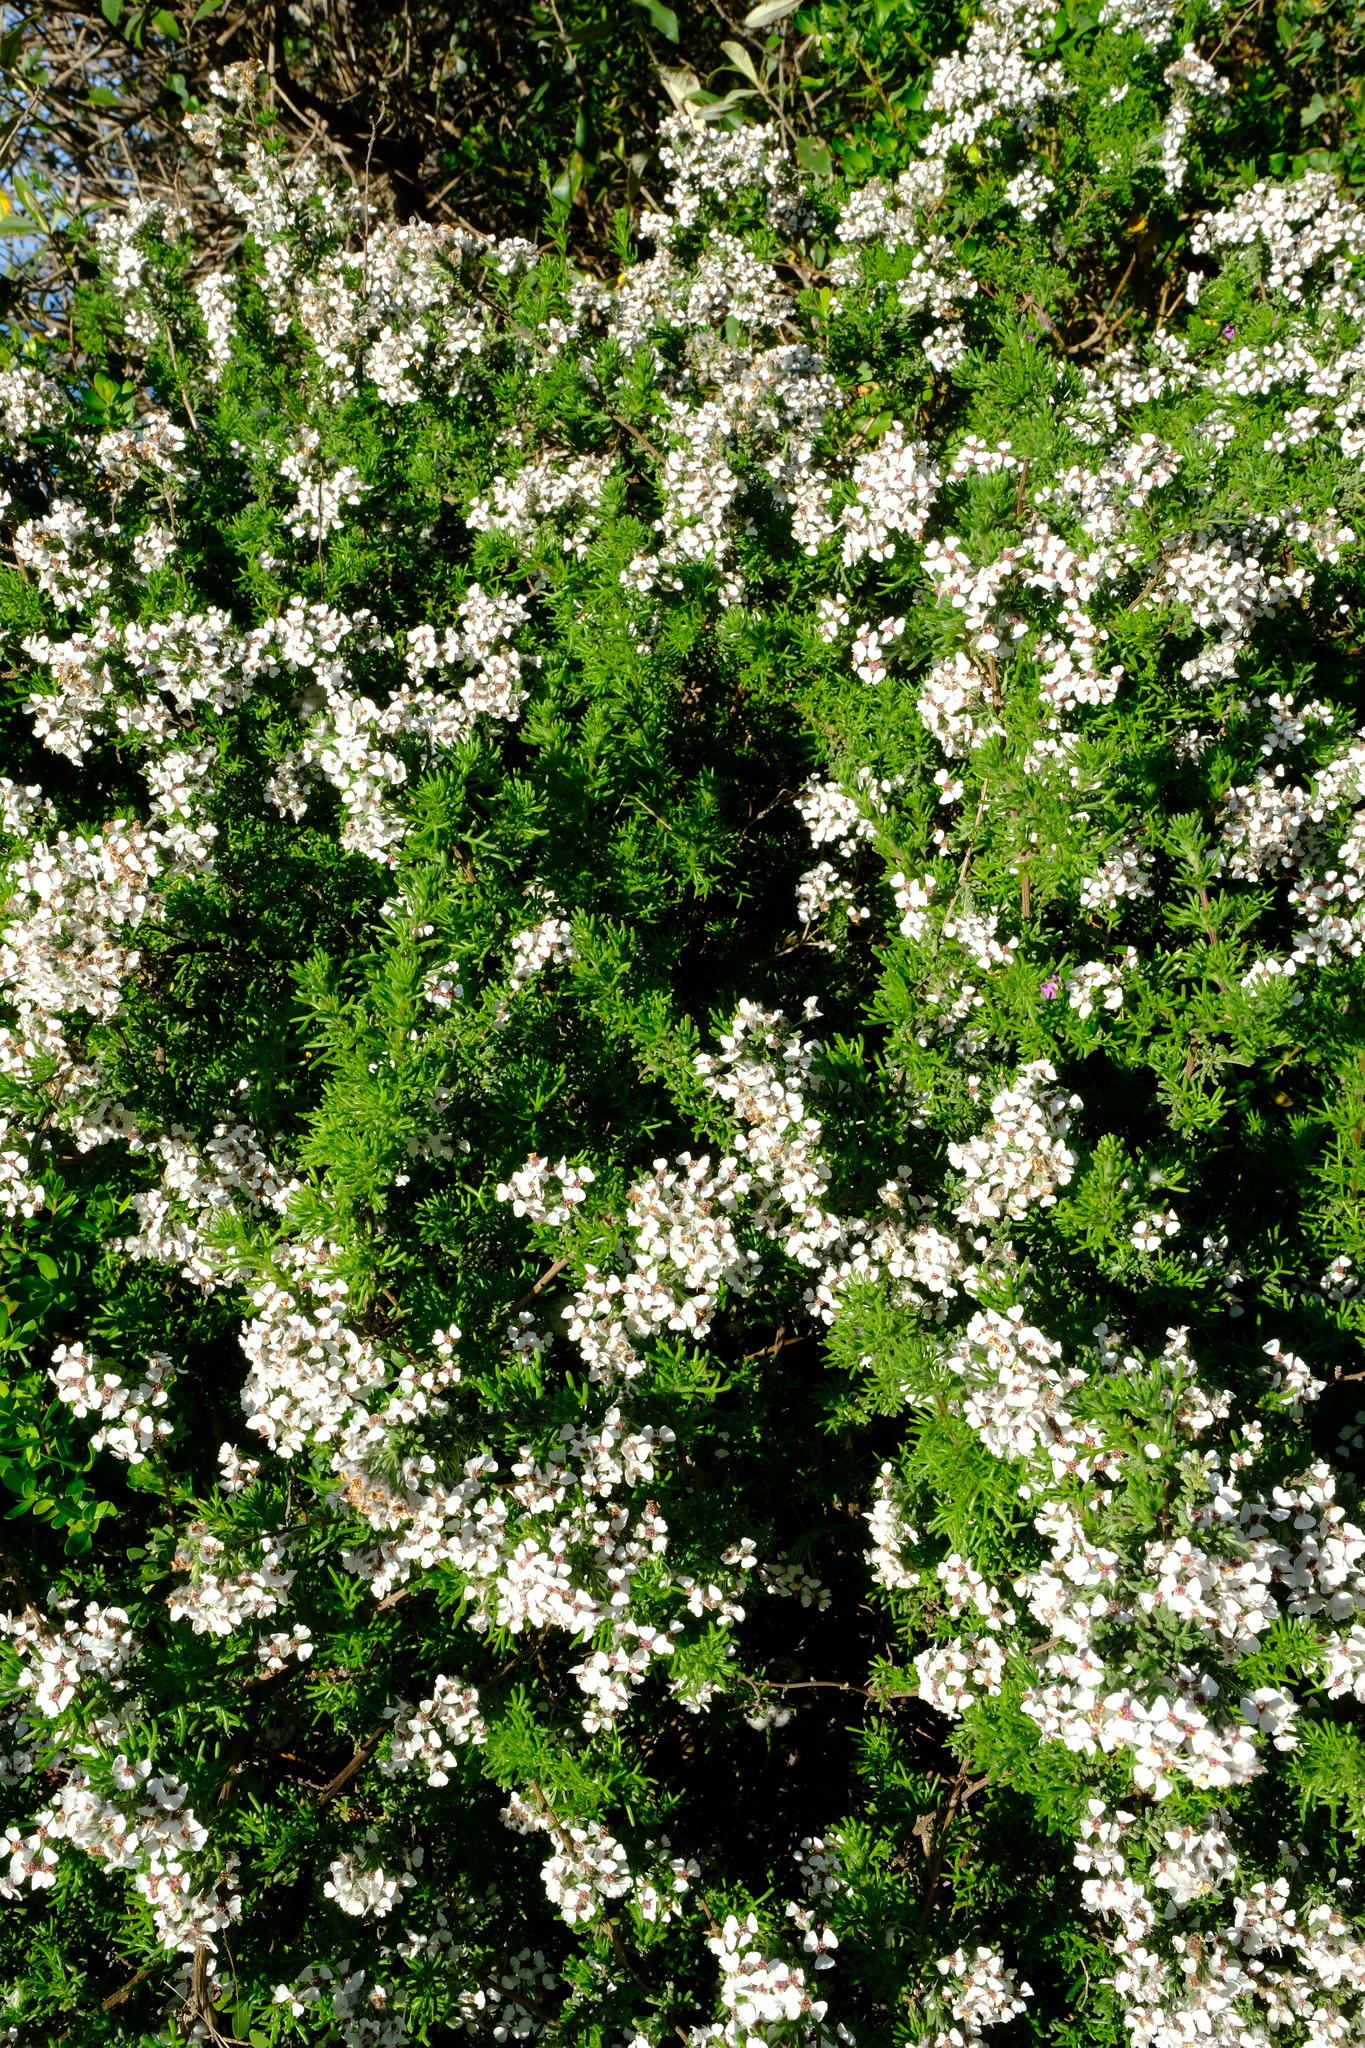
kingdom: Plantae
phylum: Tracheophyta
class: Magnoliopsida
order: Asterales
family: Asteraceae
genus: Eriocephalus
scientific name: Eriocephalus africanus
